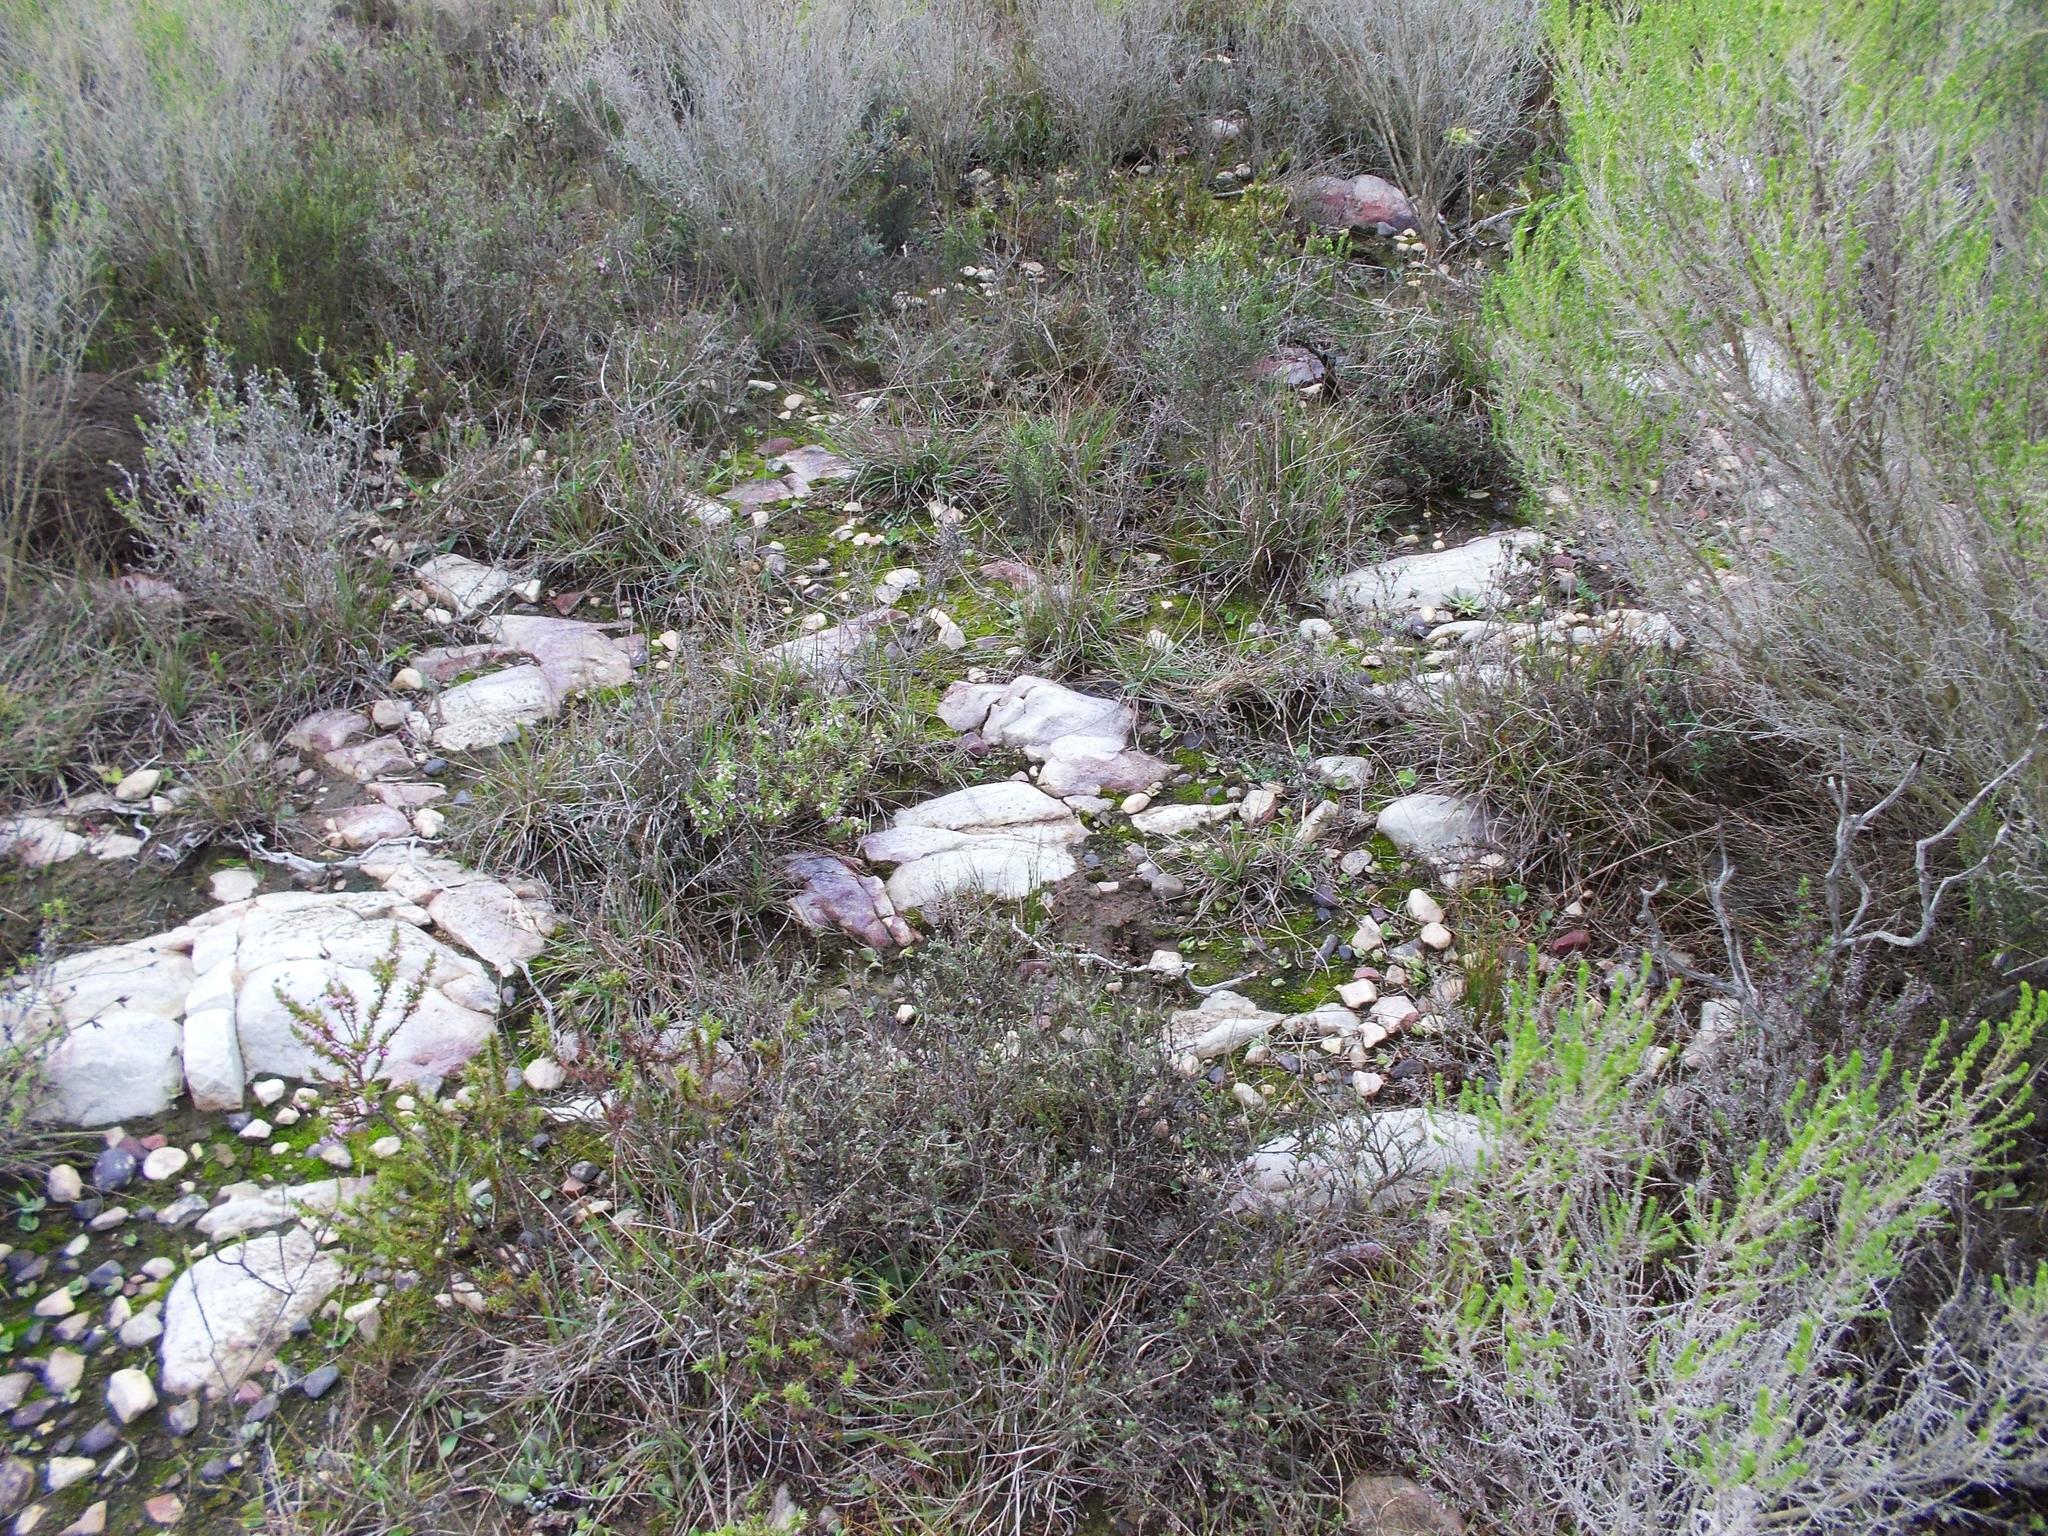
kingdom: Plantae
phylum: Tracheophyta
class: Liliopsida
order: Asparagales
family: Asphodelaceae
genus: Haworthia
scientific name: Haworthia pygmaea
